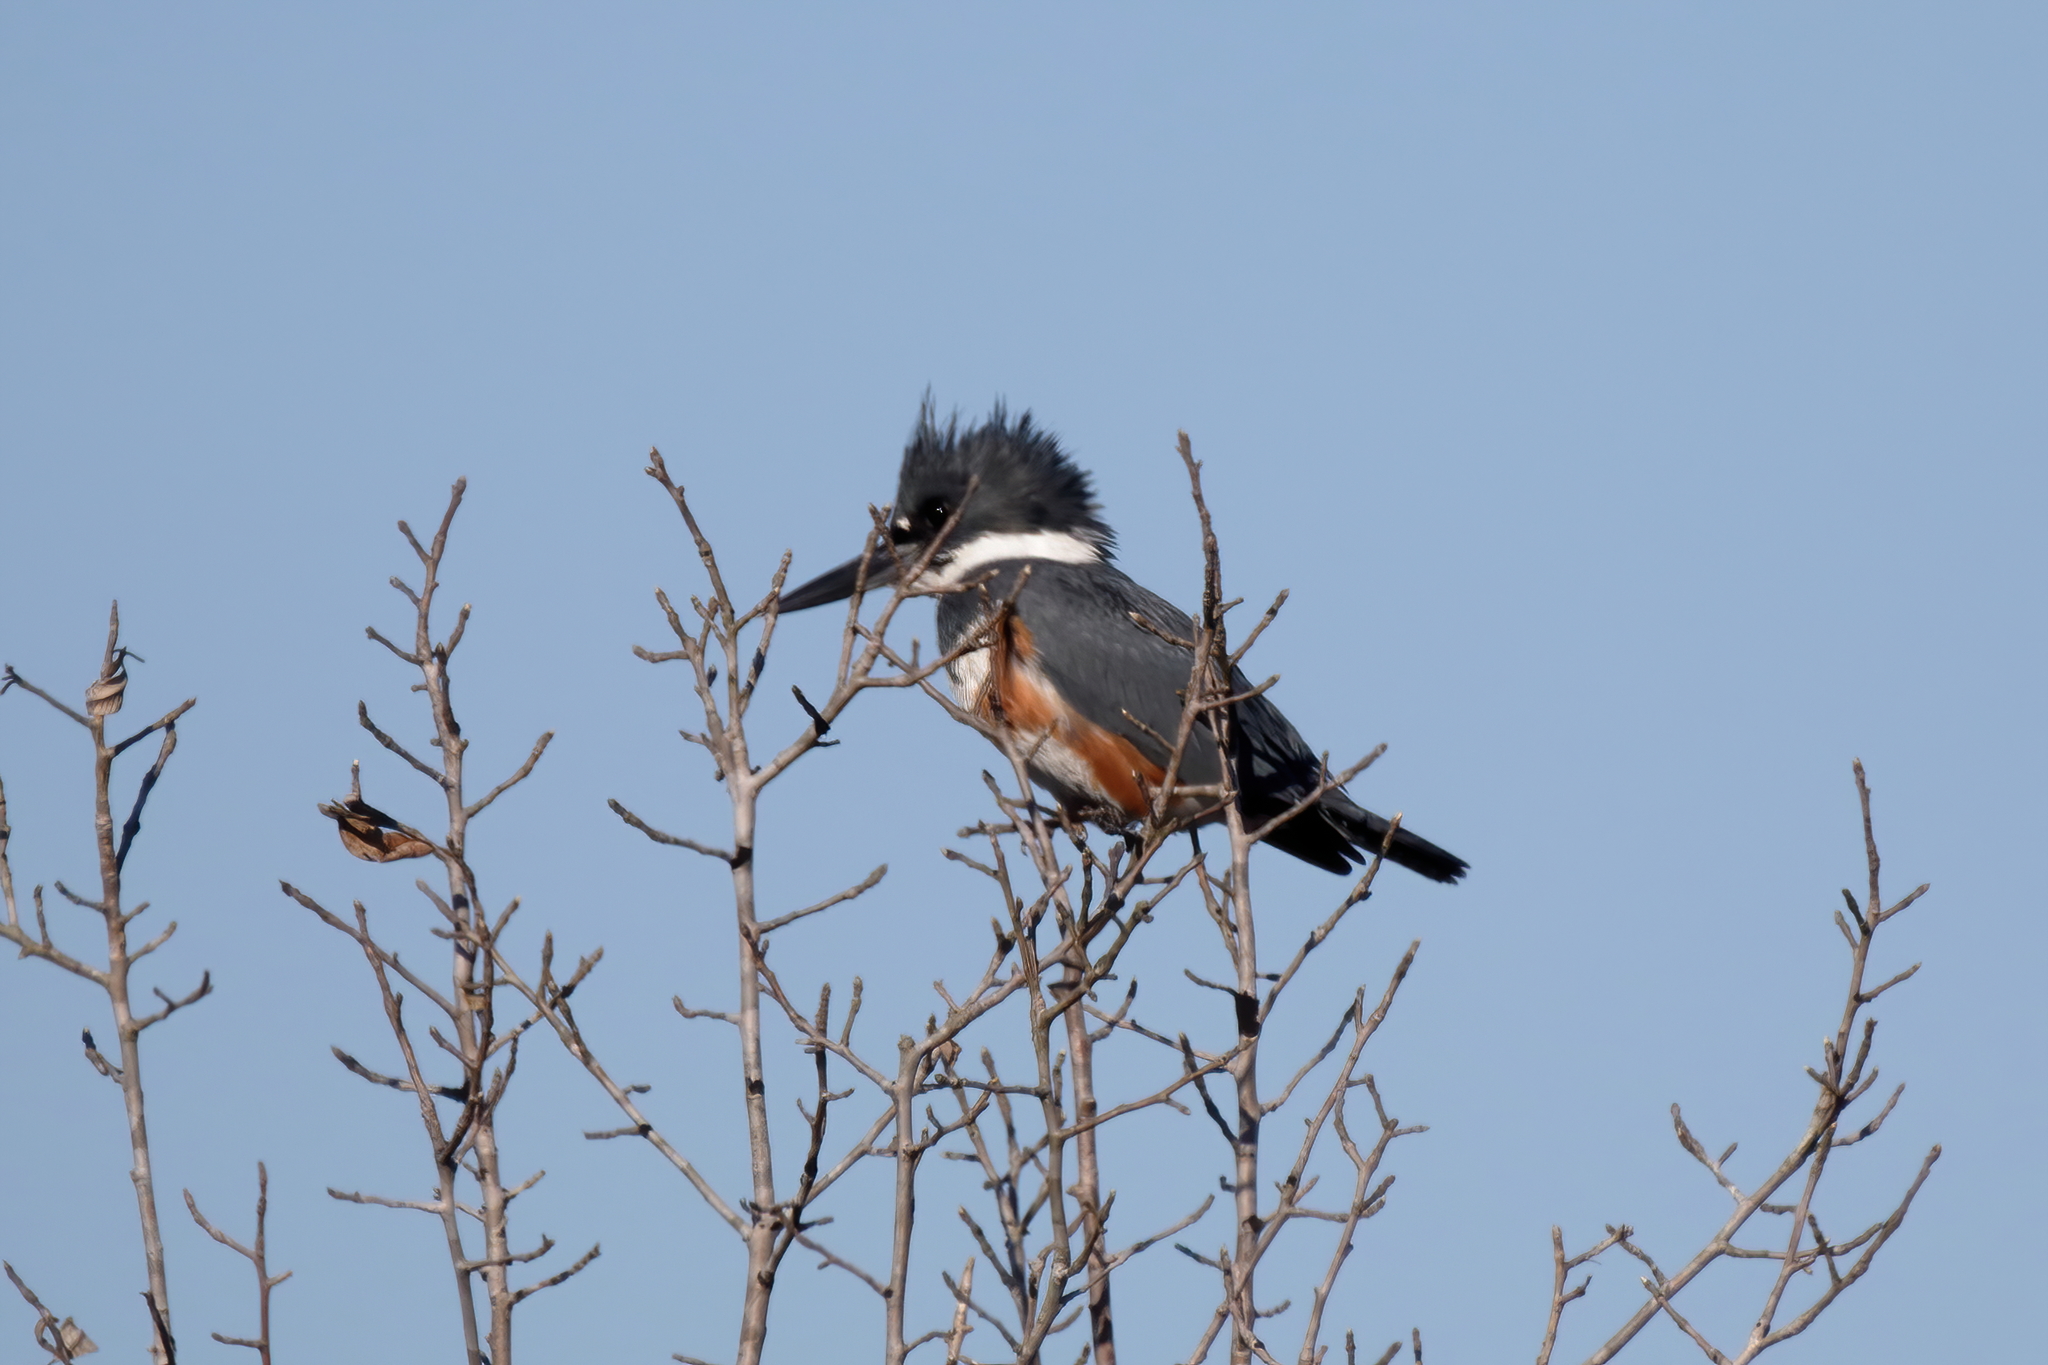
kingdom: Animalia
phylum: Chordata
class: Aves
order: Coraciiformes
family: Alcedinidae
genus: Megaceryle
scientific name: Megaceryle alcyon
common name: Belted kingfisher
